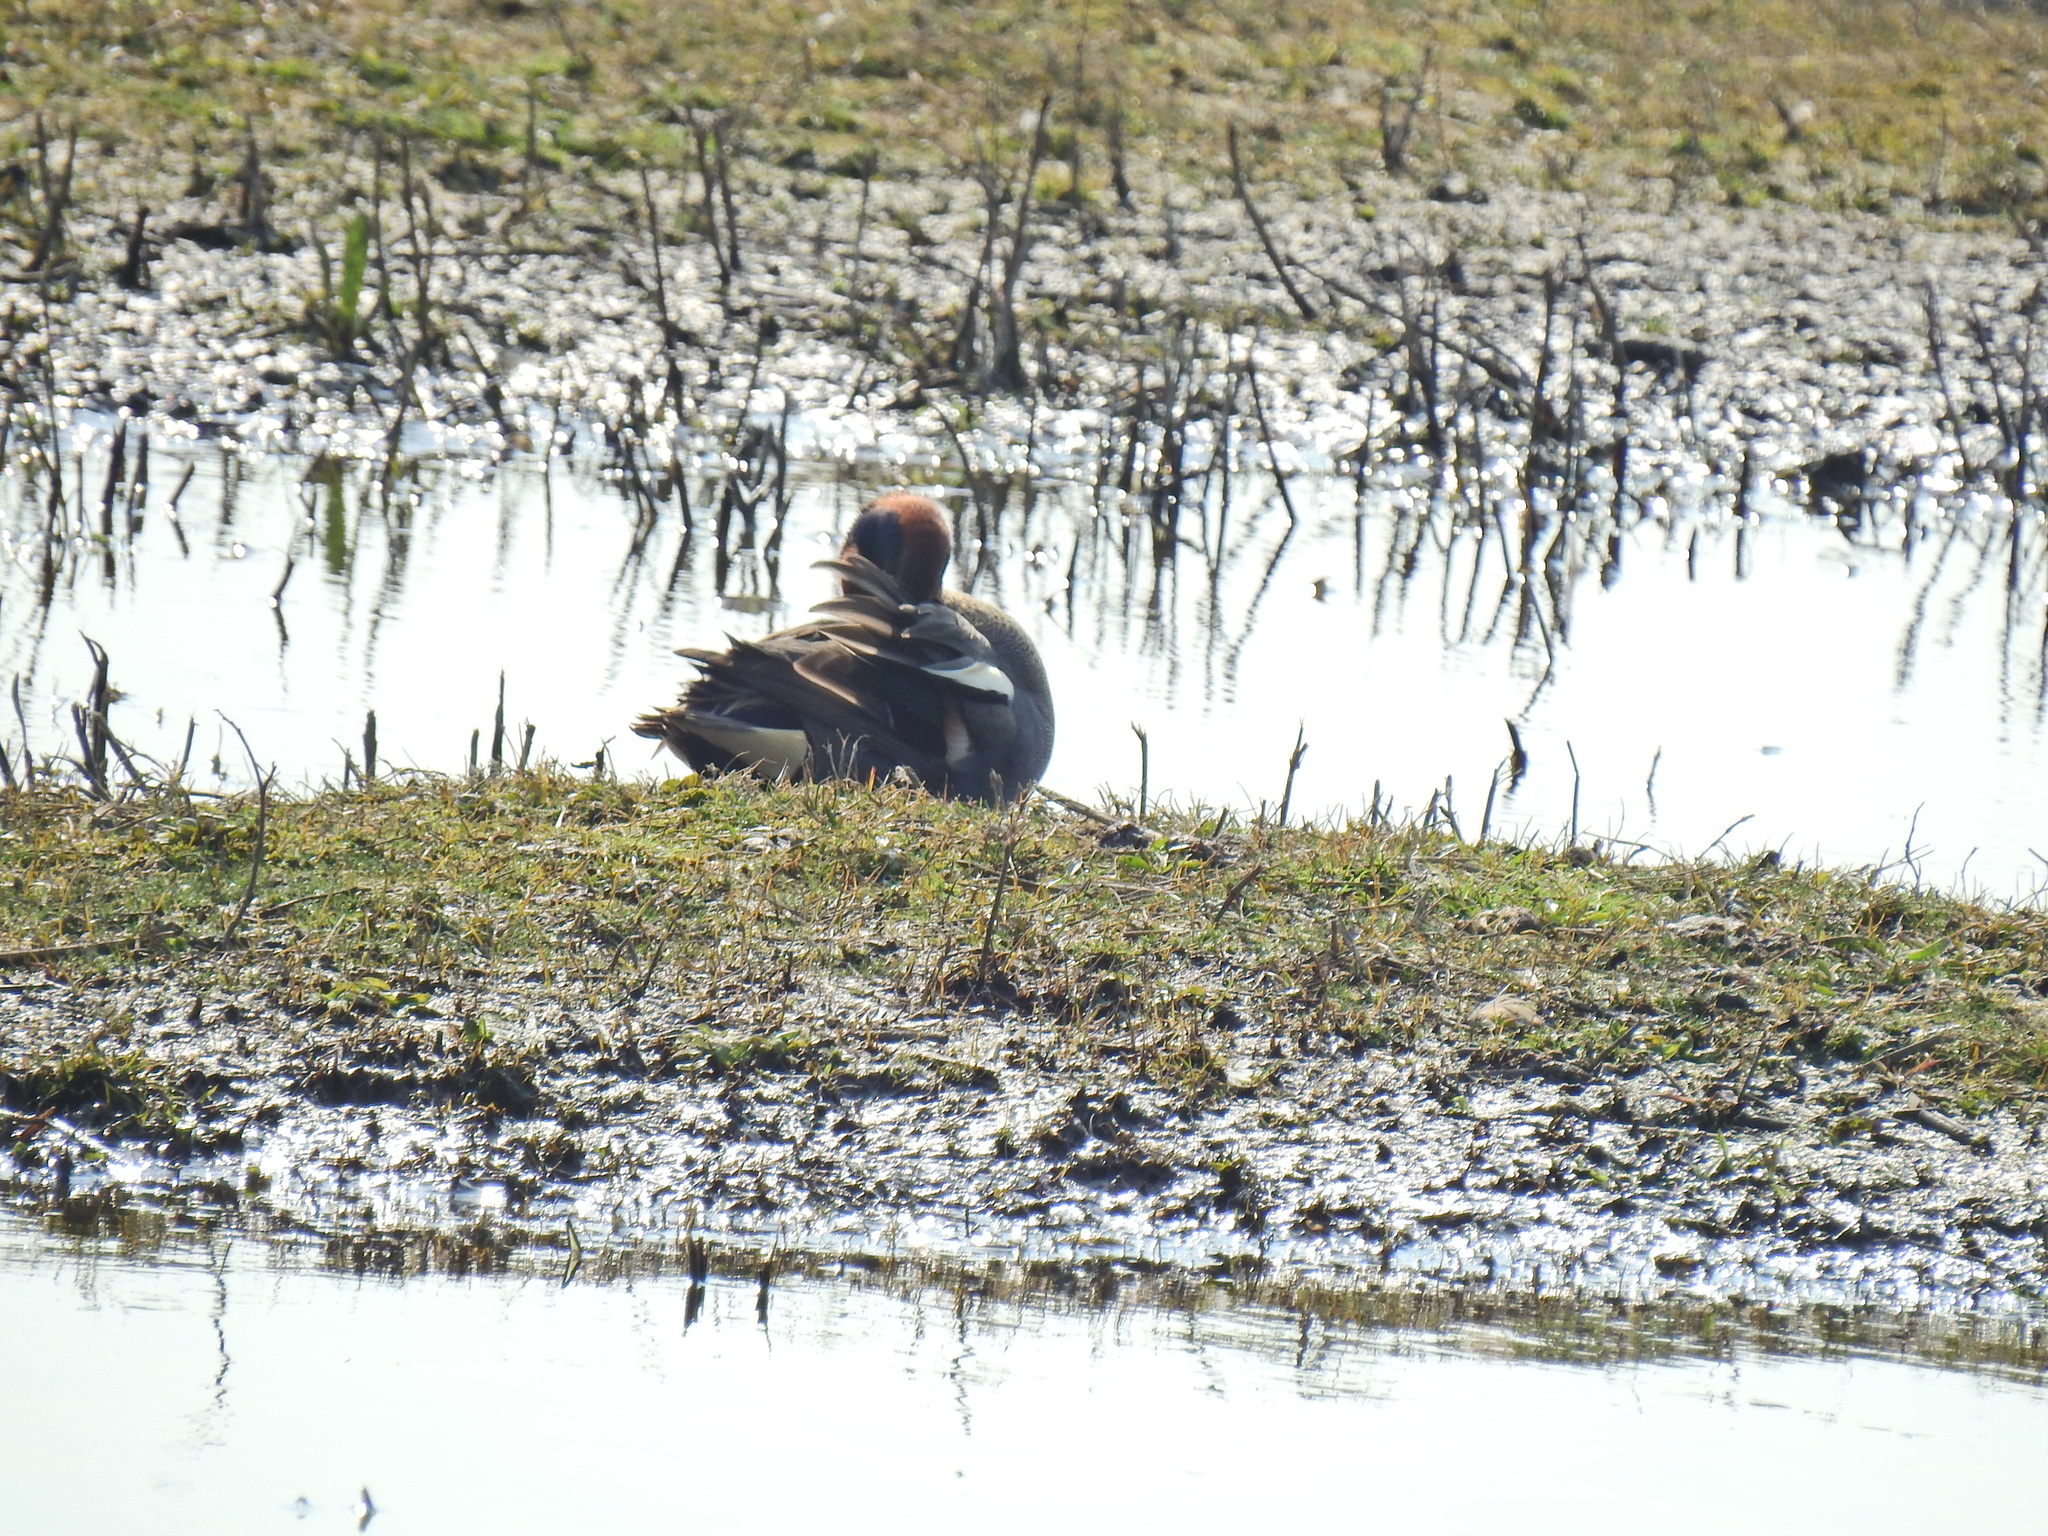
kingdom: Animalia
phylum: Chordata
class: Aves
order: Anseriformes
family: Anatidae
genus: Anas
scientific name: Anas crecca
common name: Eurasian teal
